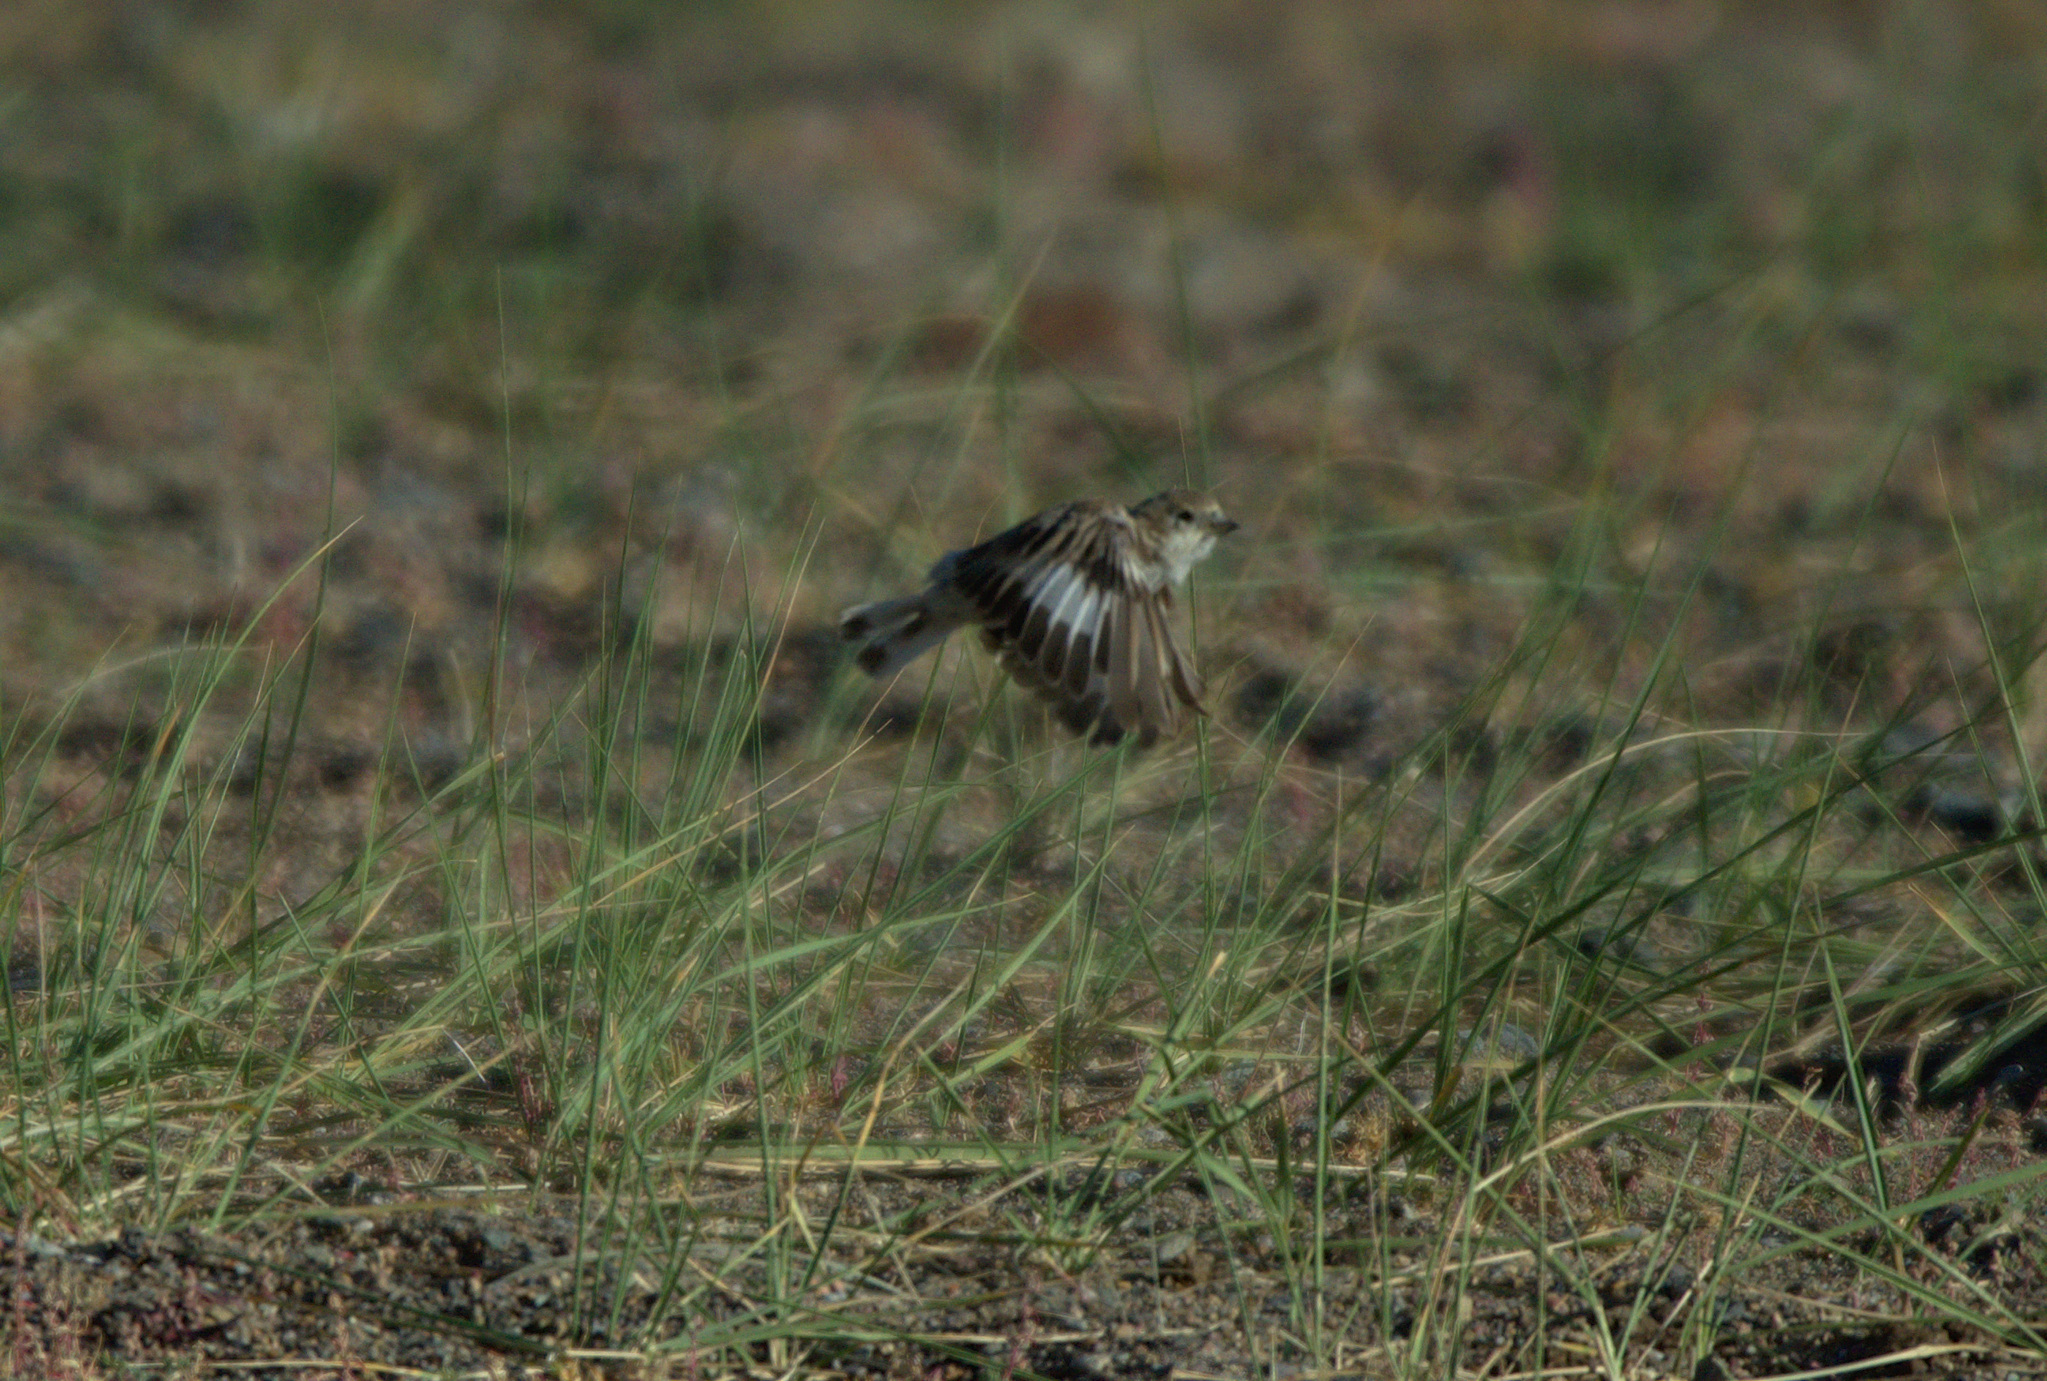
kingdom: Animalia
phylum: Chordata
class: Aves
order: Passeriformes
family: Passeridae
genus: Pyrgilauda
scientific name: Pyrgilauda davidiana
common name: Pere david's snowfinch
